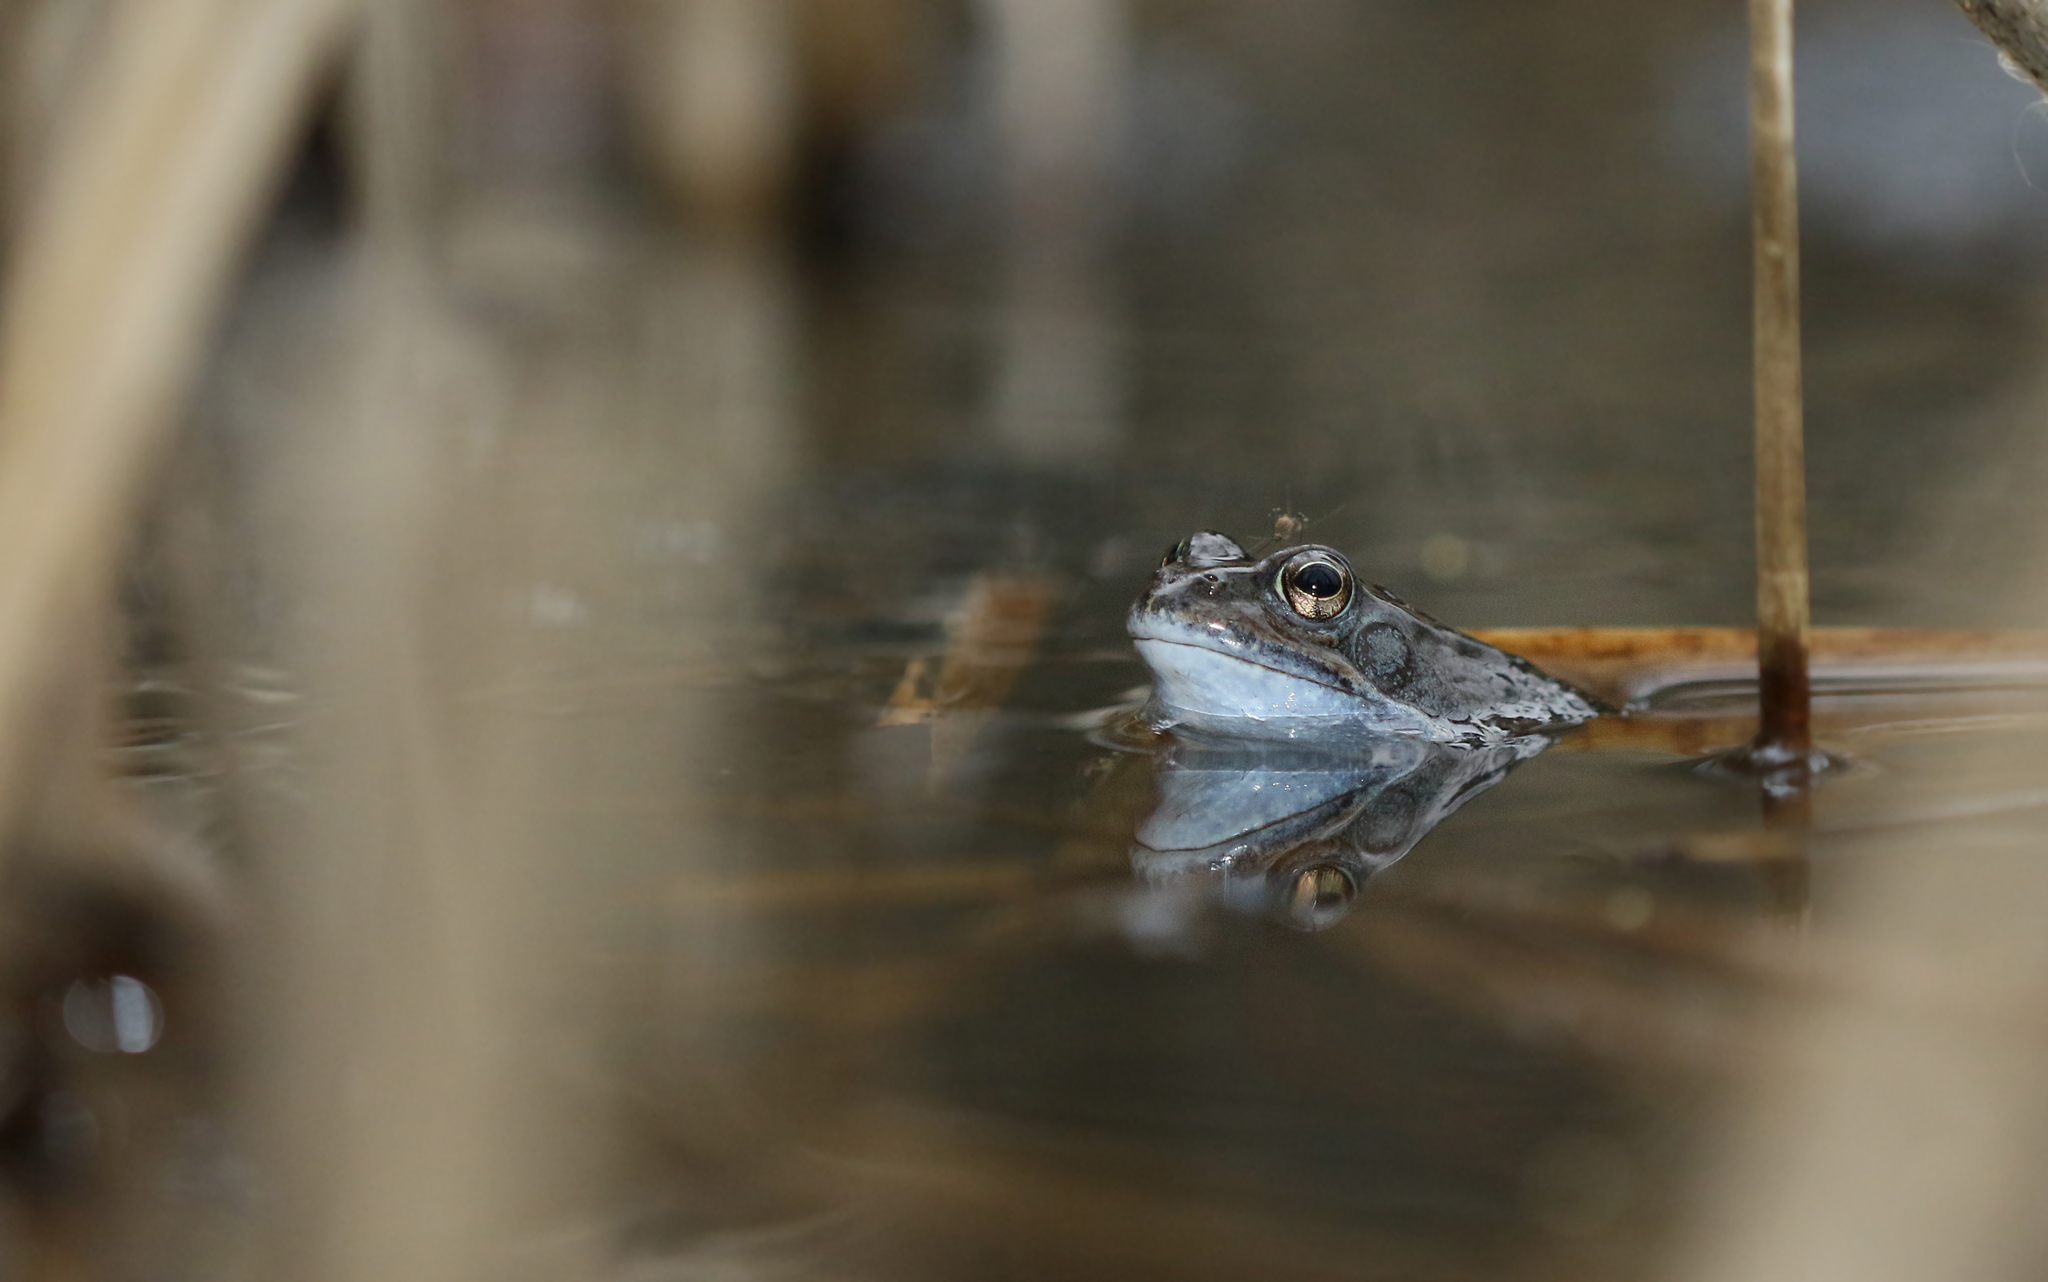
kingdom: Animalia
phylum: Chordata
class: Amphibia
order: Anura
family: Ranidae
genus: Rana
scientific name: Rana temporaria
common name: Common frog
